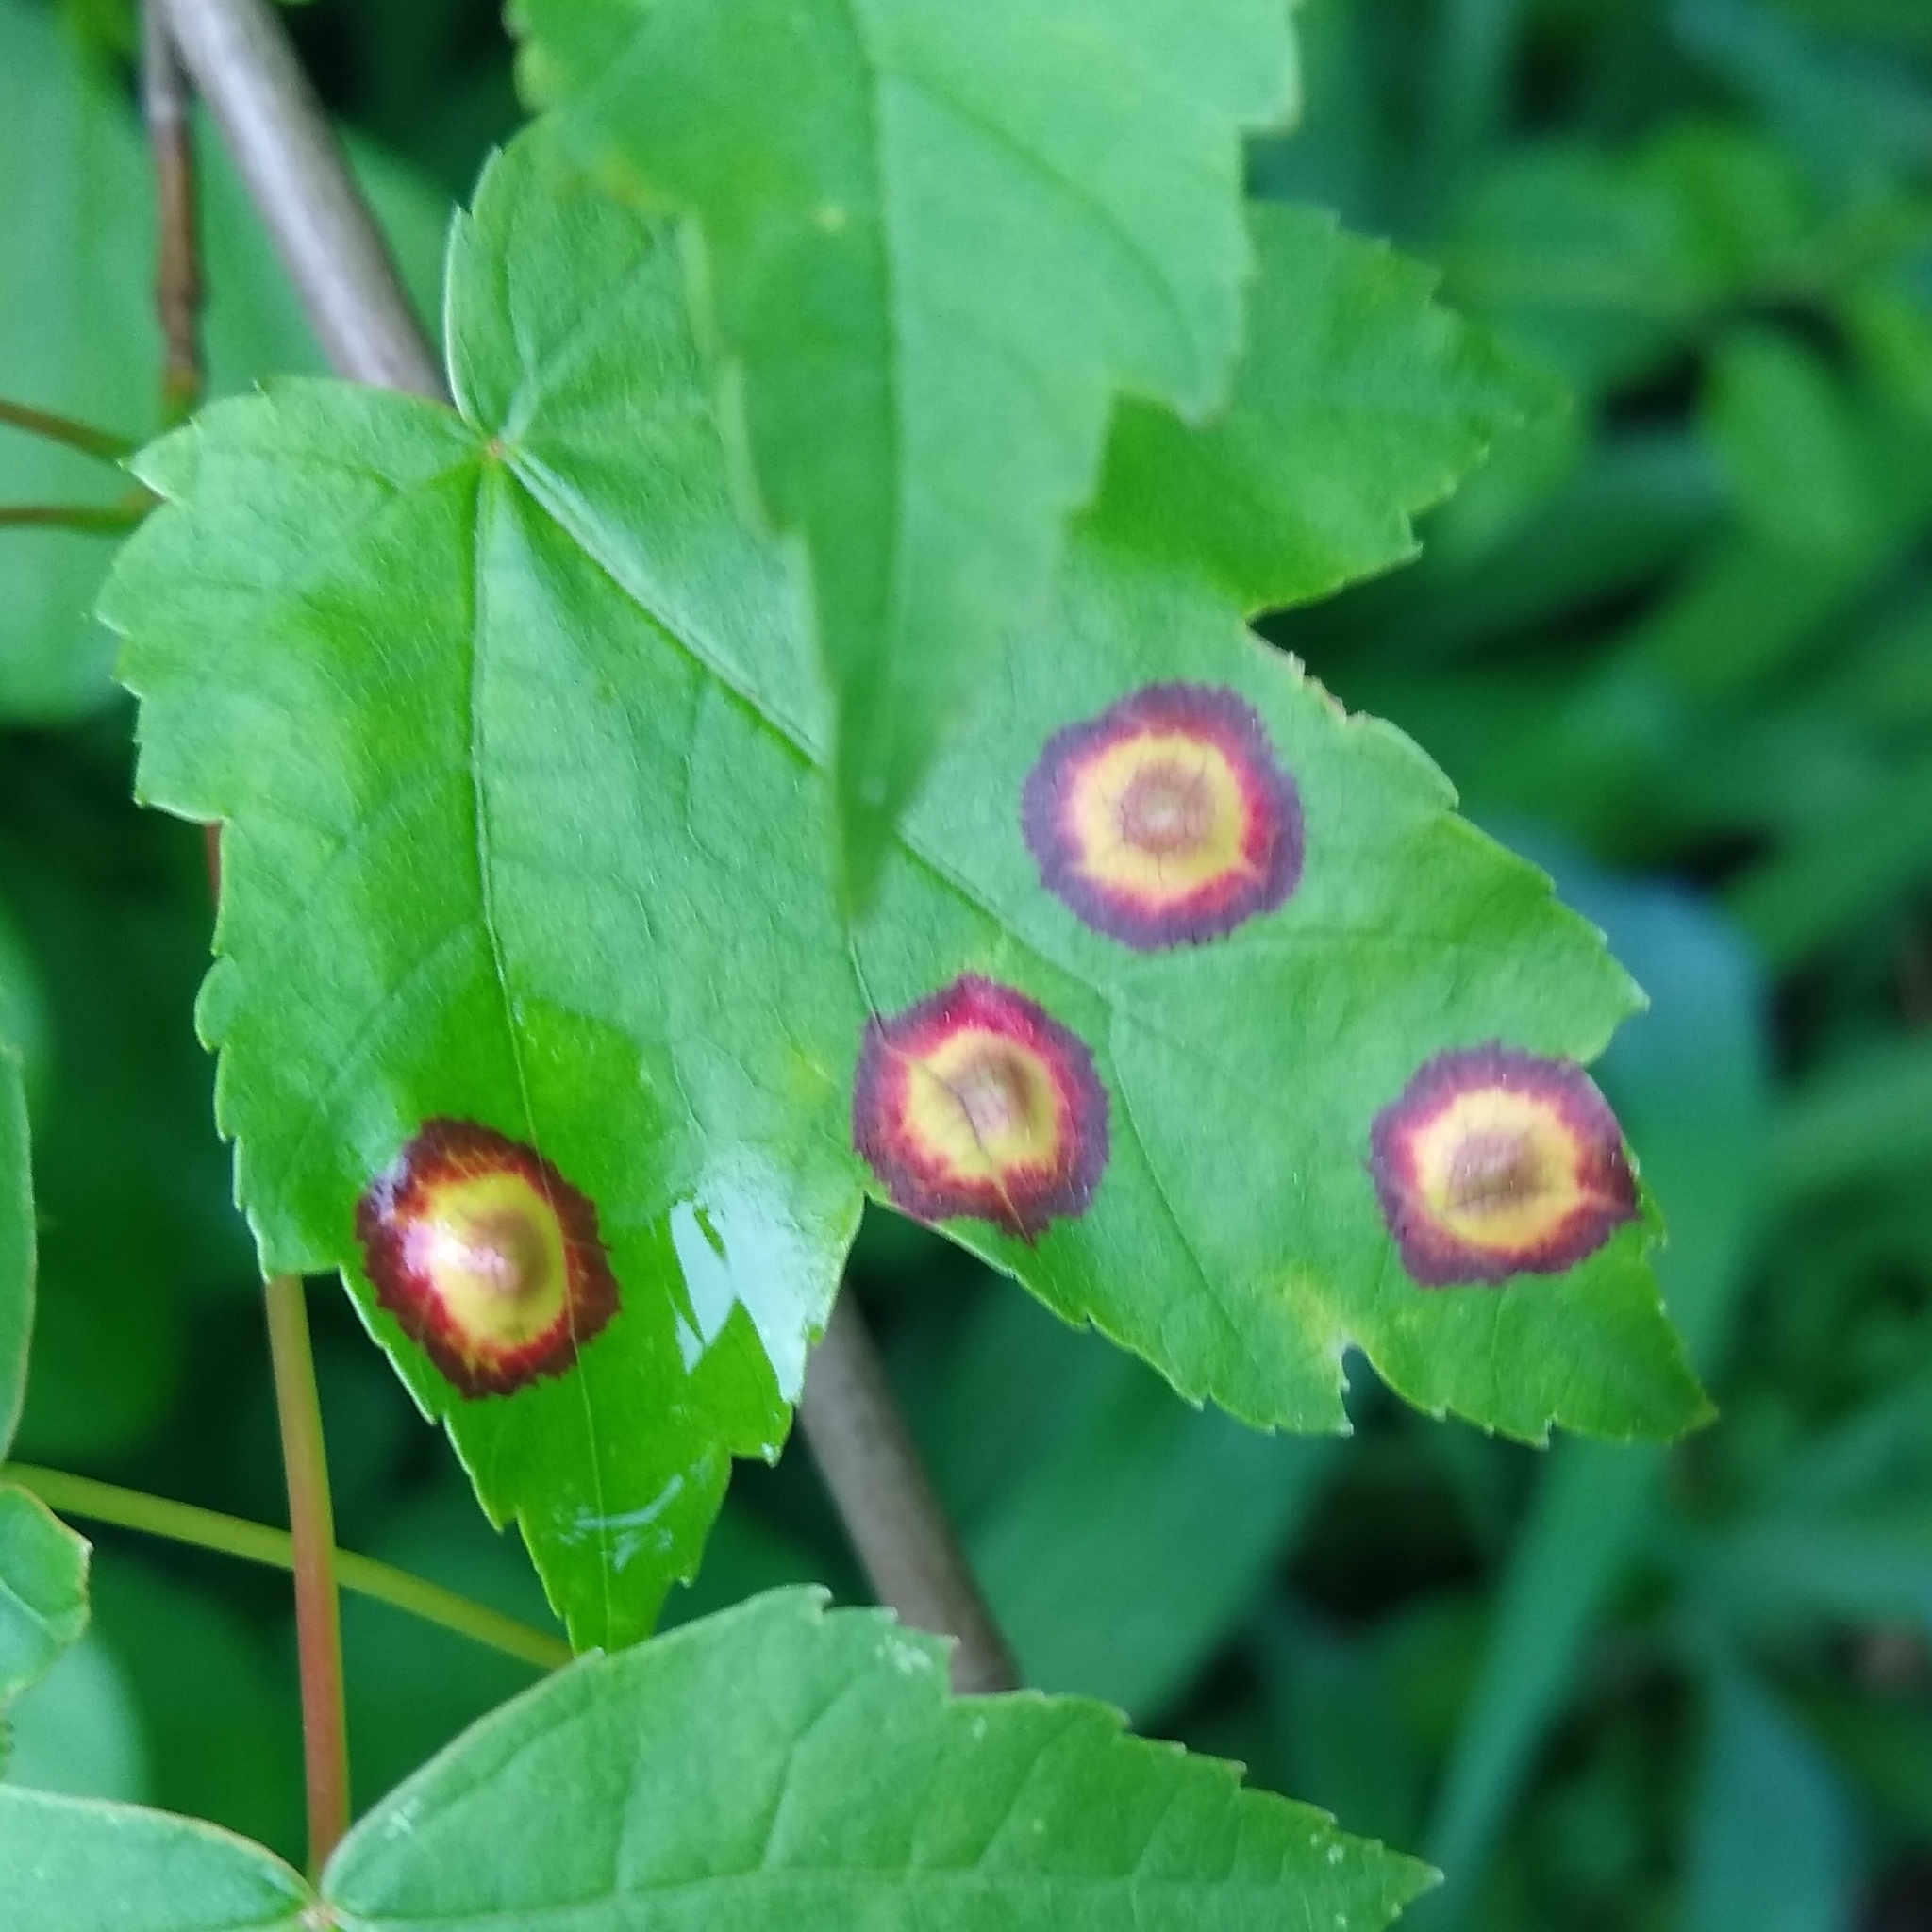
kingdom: Animalia
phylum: Arthropoda
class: Insecta
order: Diptera
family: Cecidomyiidae
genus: Acericecis
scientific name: Acericecis ocellaris
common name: Ocellate gall midge
